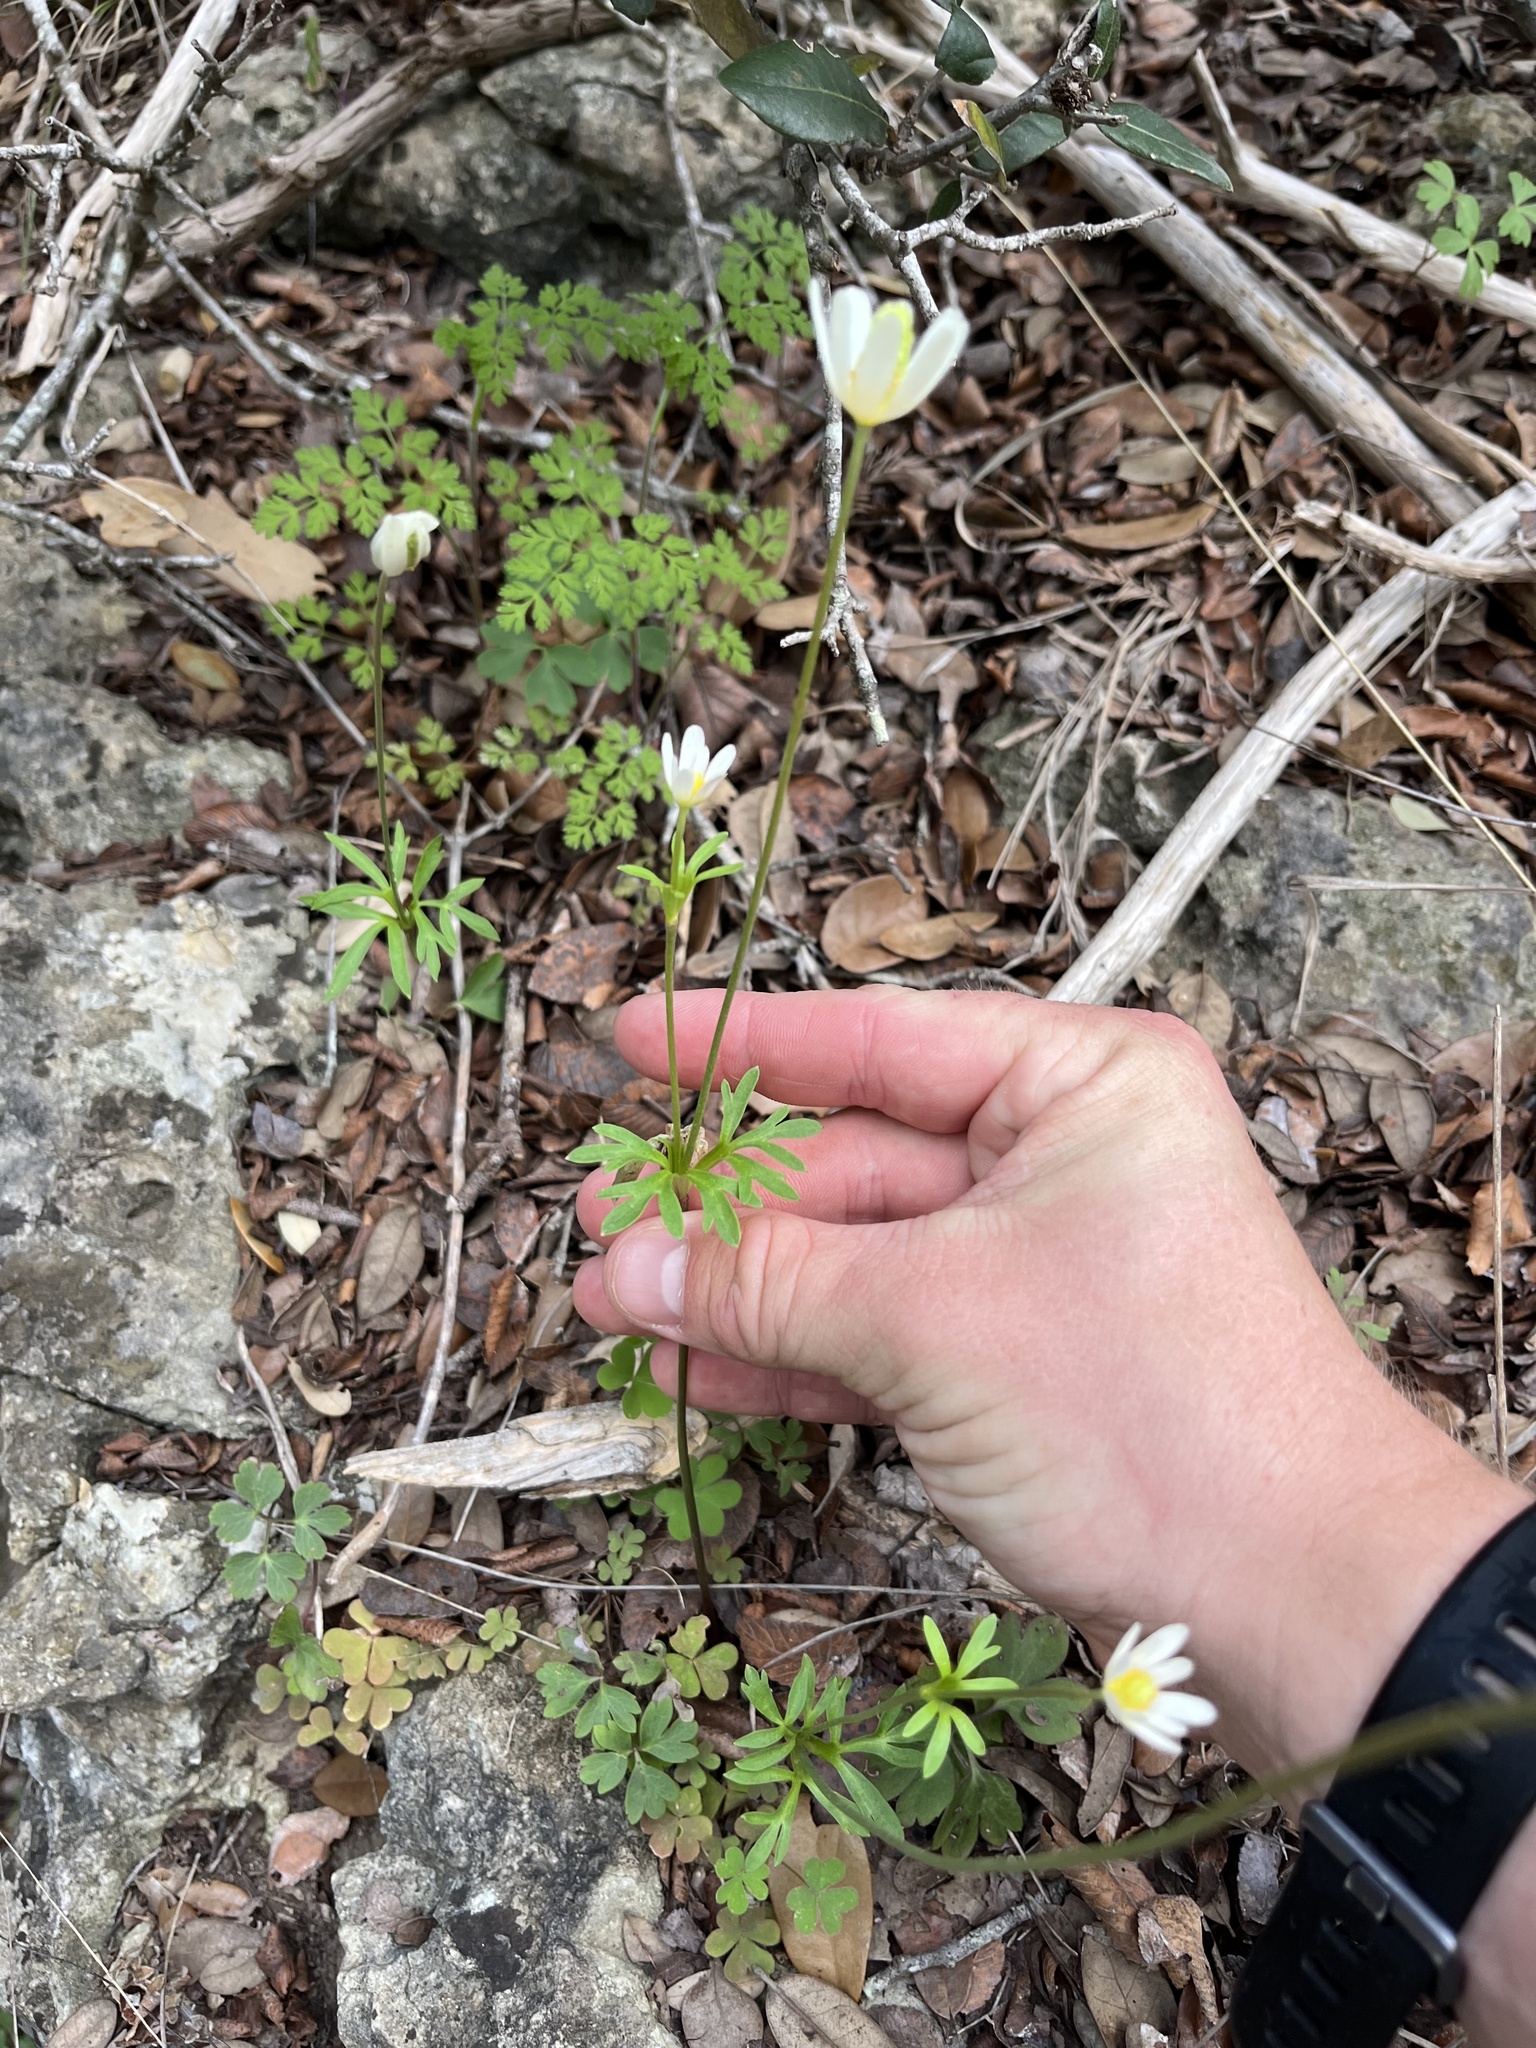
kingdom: Plantae
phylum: Tracheophyta
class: Magnoliopsida
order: Ranunculales
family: Ranunculaceae
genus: Anemone
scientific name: Anemone edwardsiana
